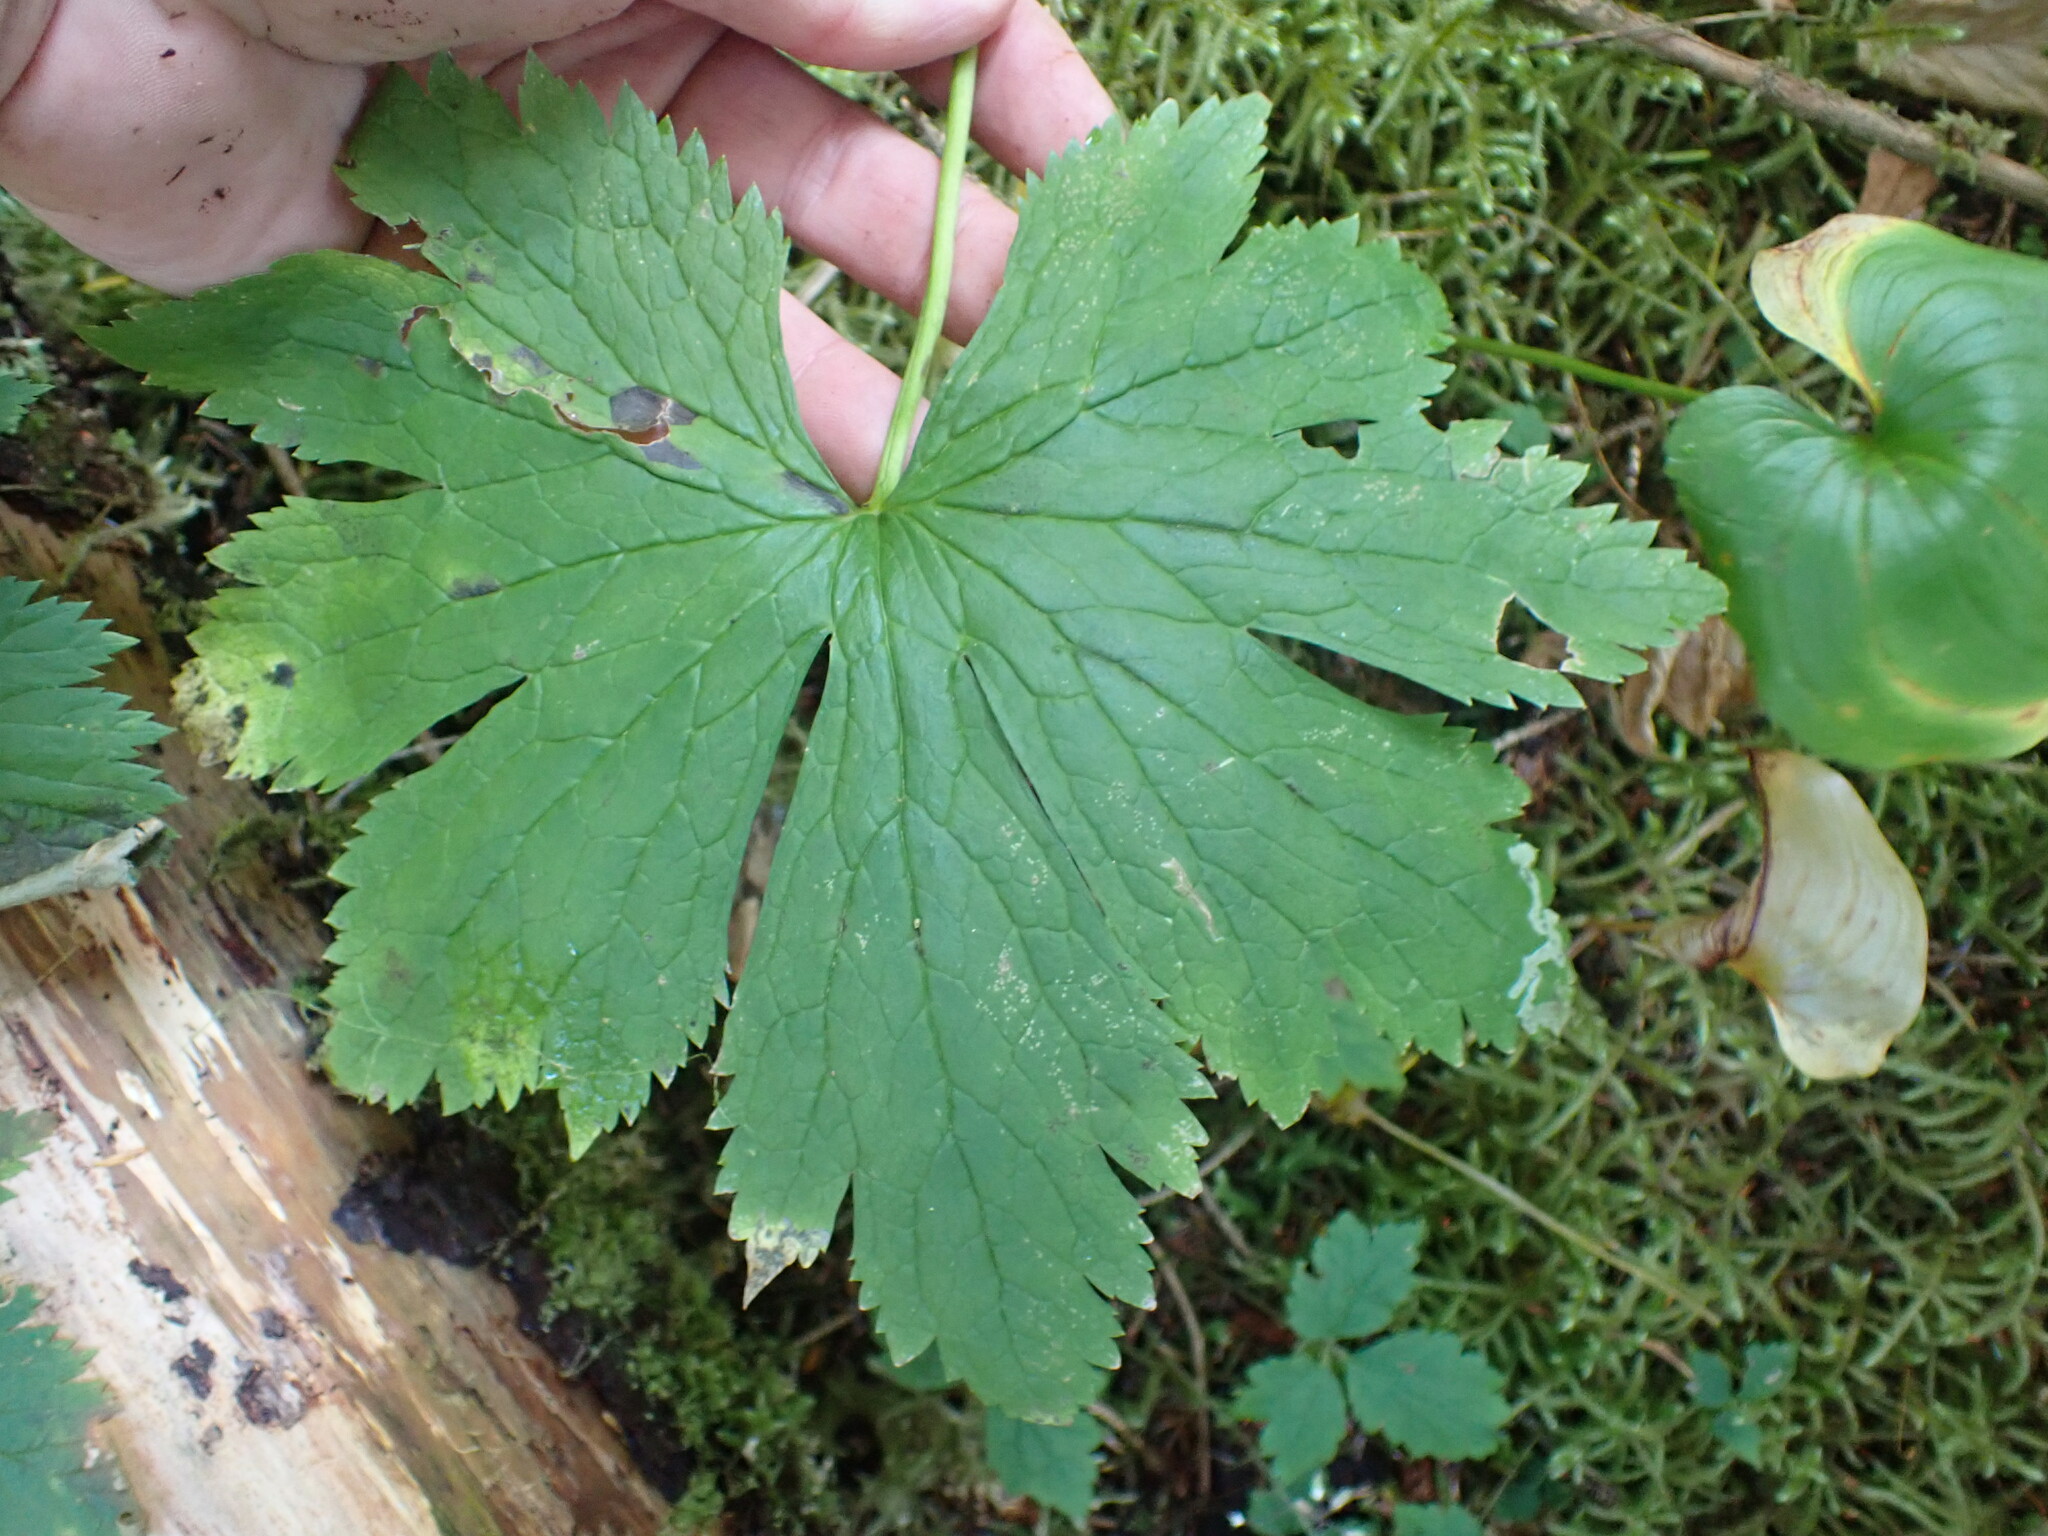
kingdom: Plantae
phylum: Tracheophyta
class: Magnoliopsida
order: Ranunculales
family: Ranunculaceae
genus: Trautvetteria
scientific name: Trautvetteria carolinensis
